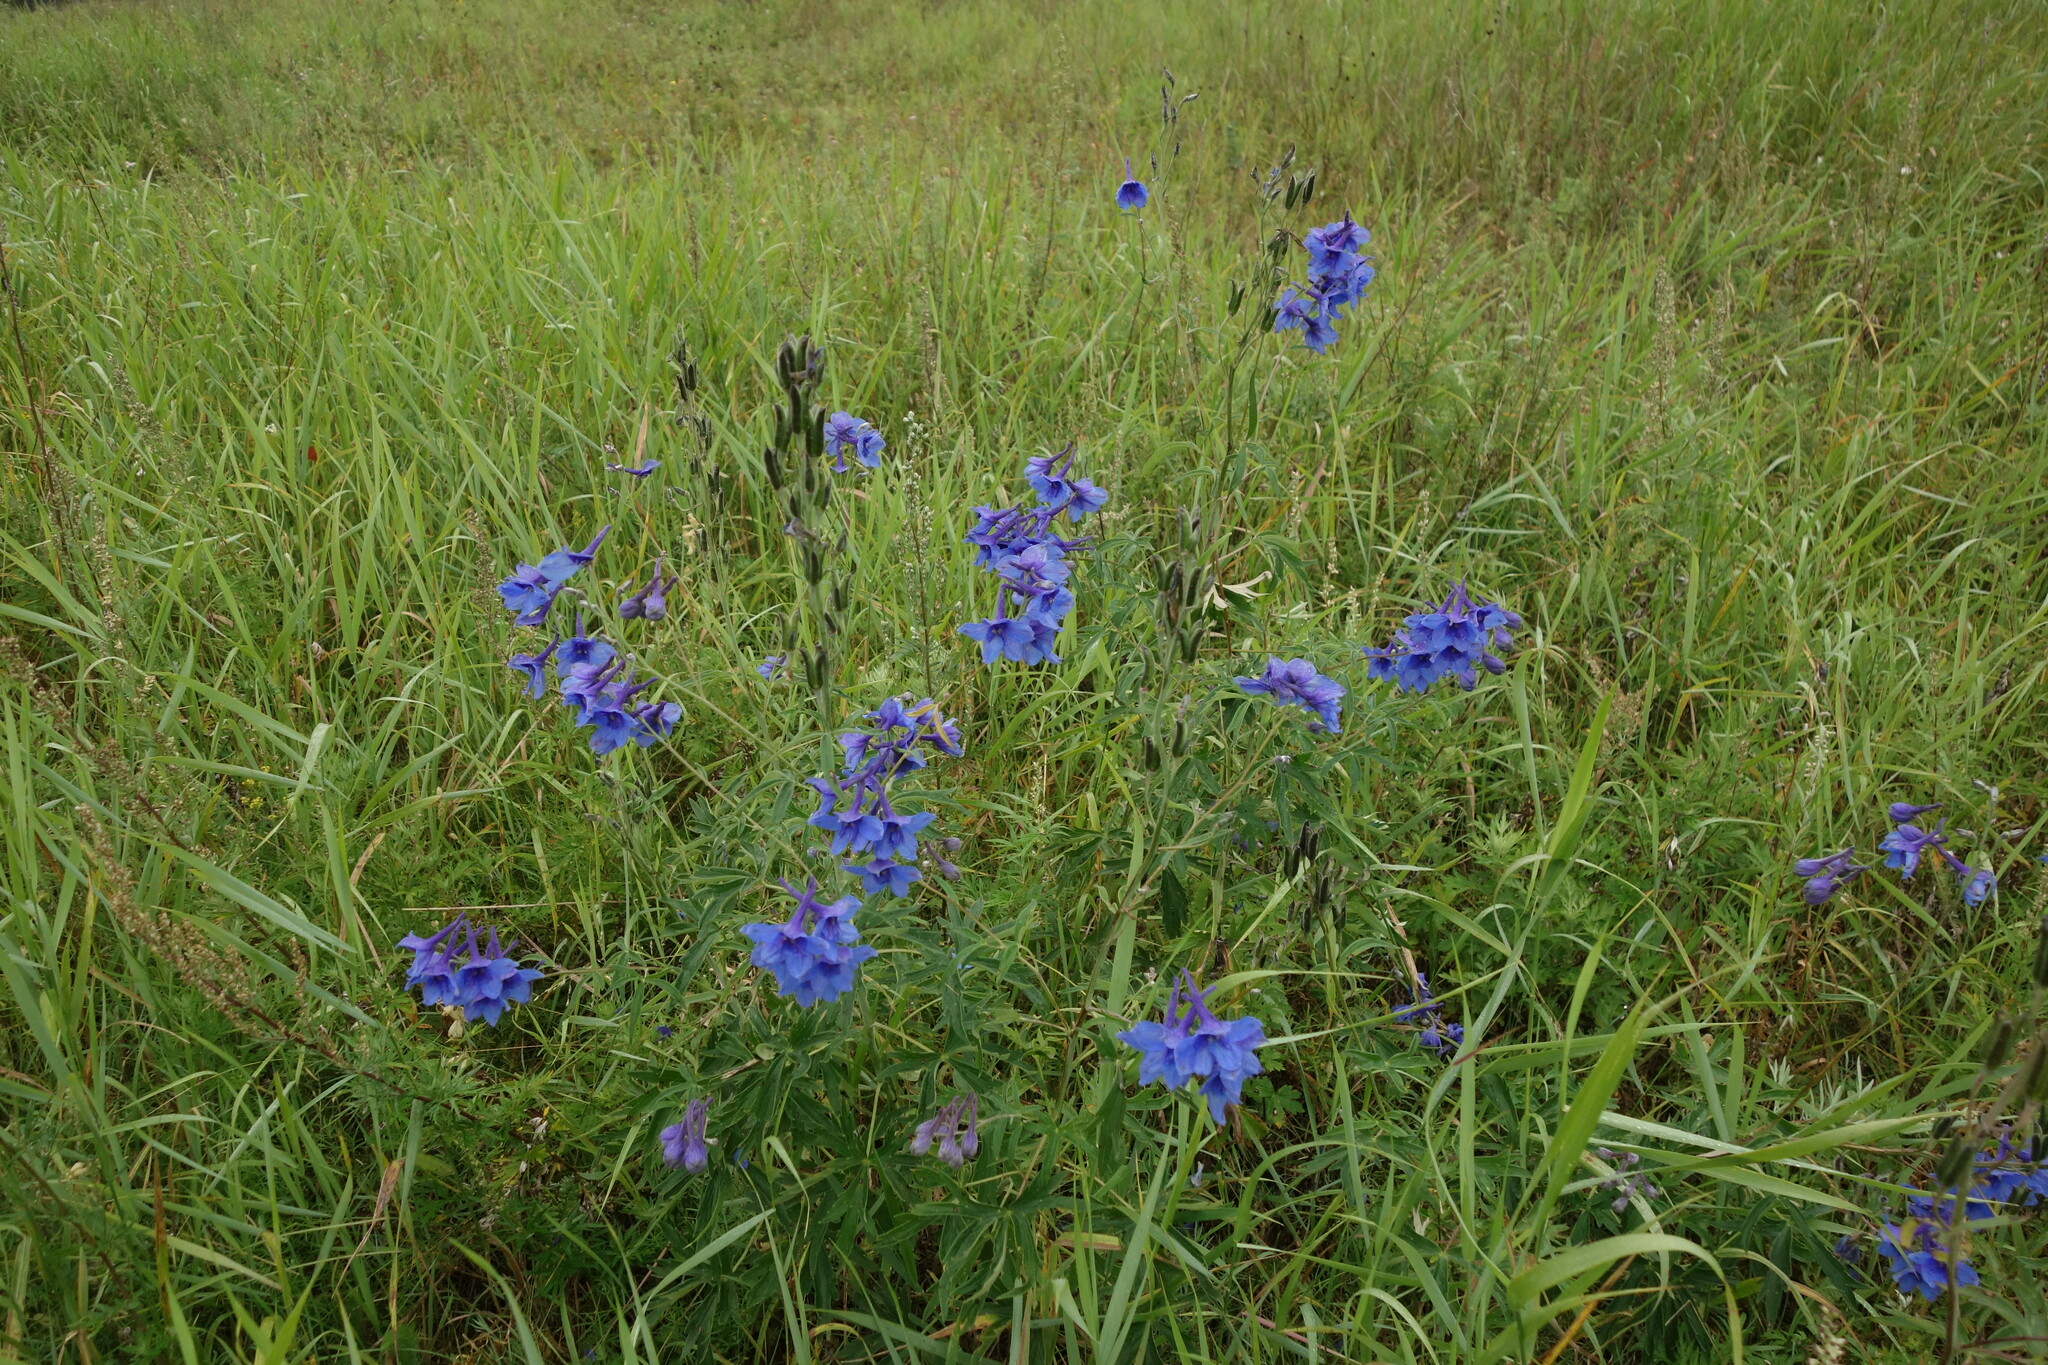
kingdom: Plantae
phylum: Tracheophyta
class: Magnoliopsida
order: Ranunculales
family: Ranunculaceae
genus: Delphinium
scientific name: Delphinium cheilanthum
